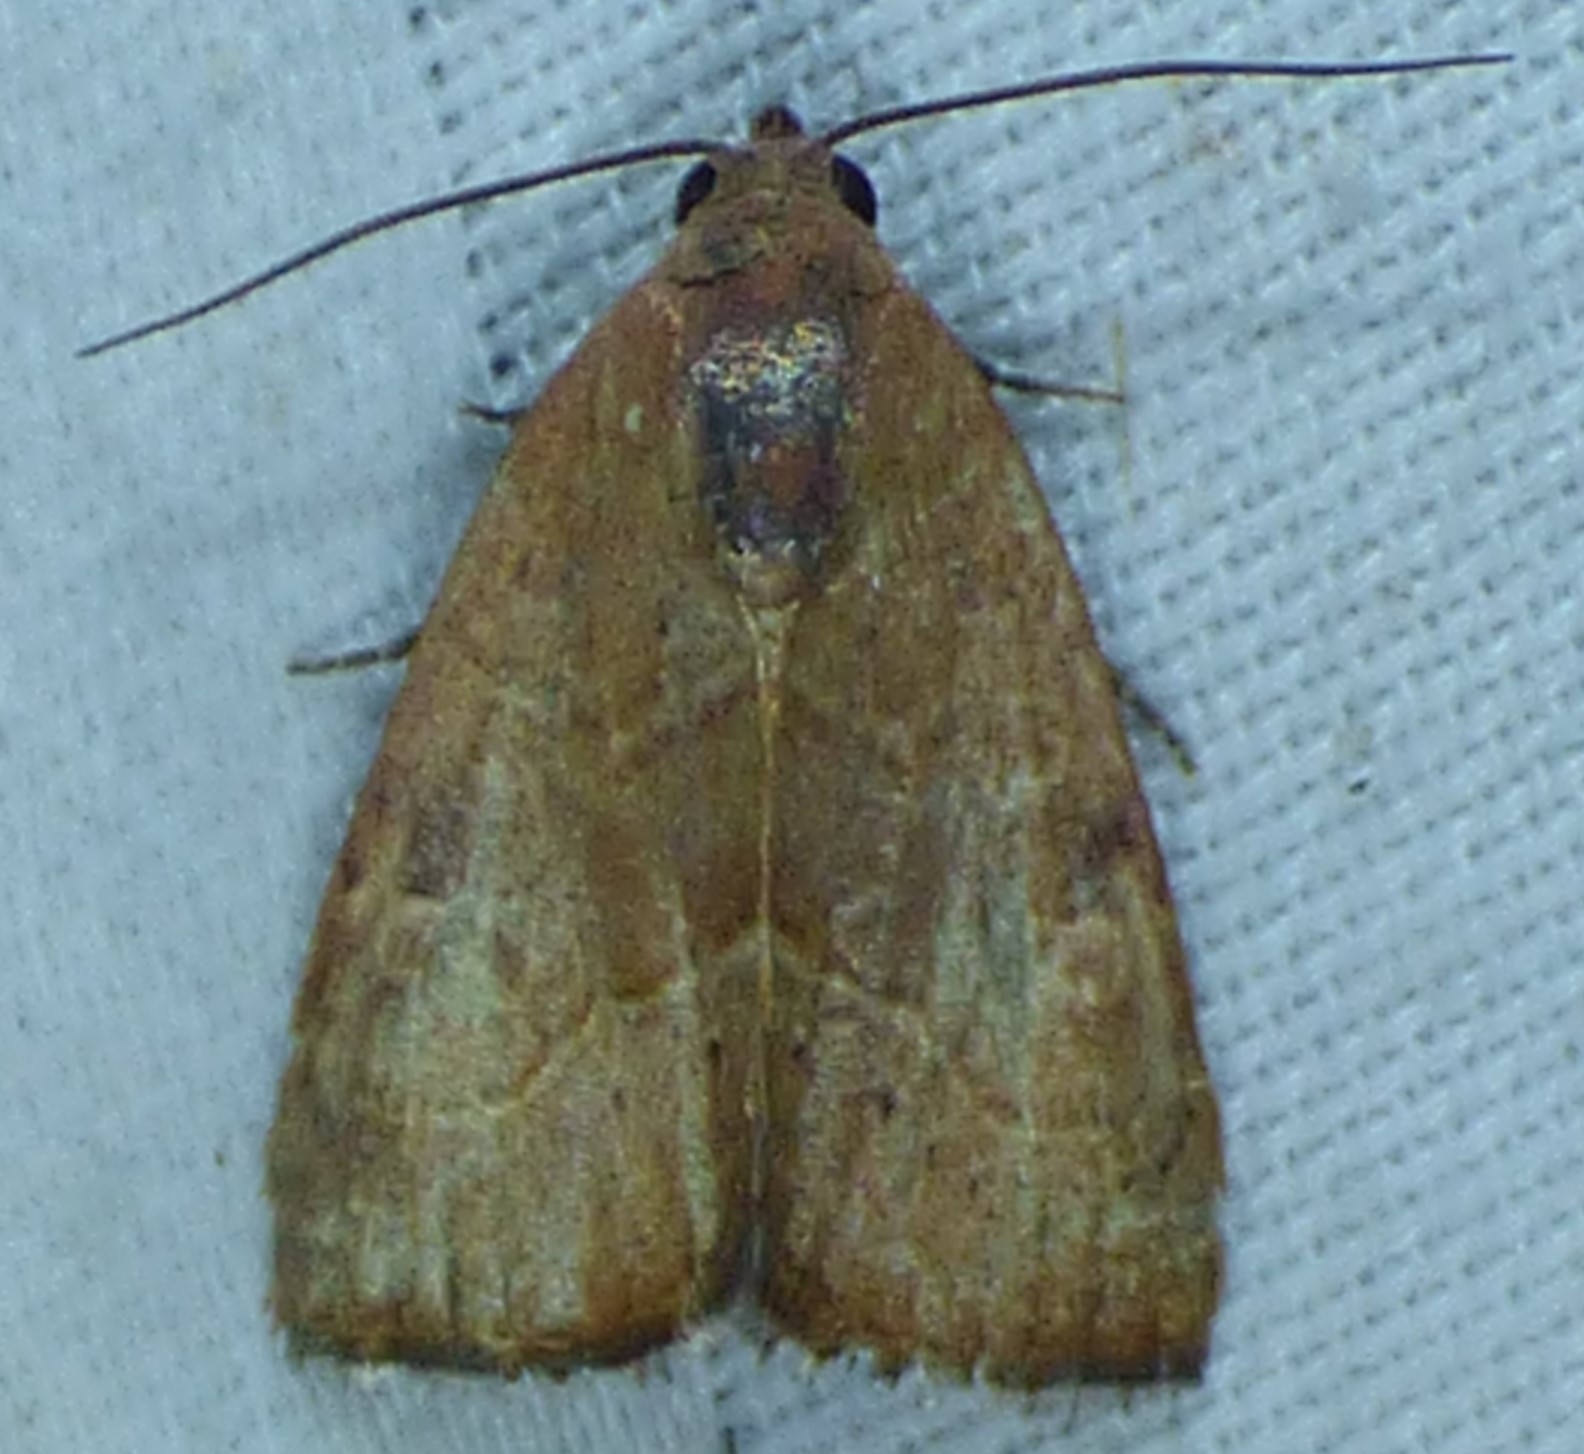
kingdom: Animalia
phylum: Arthropoda
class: Insecta
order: Lepidoptera
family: Noctuidae
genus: Galgula
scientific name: Galgula partita
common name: Wedgeling
